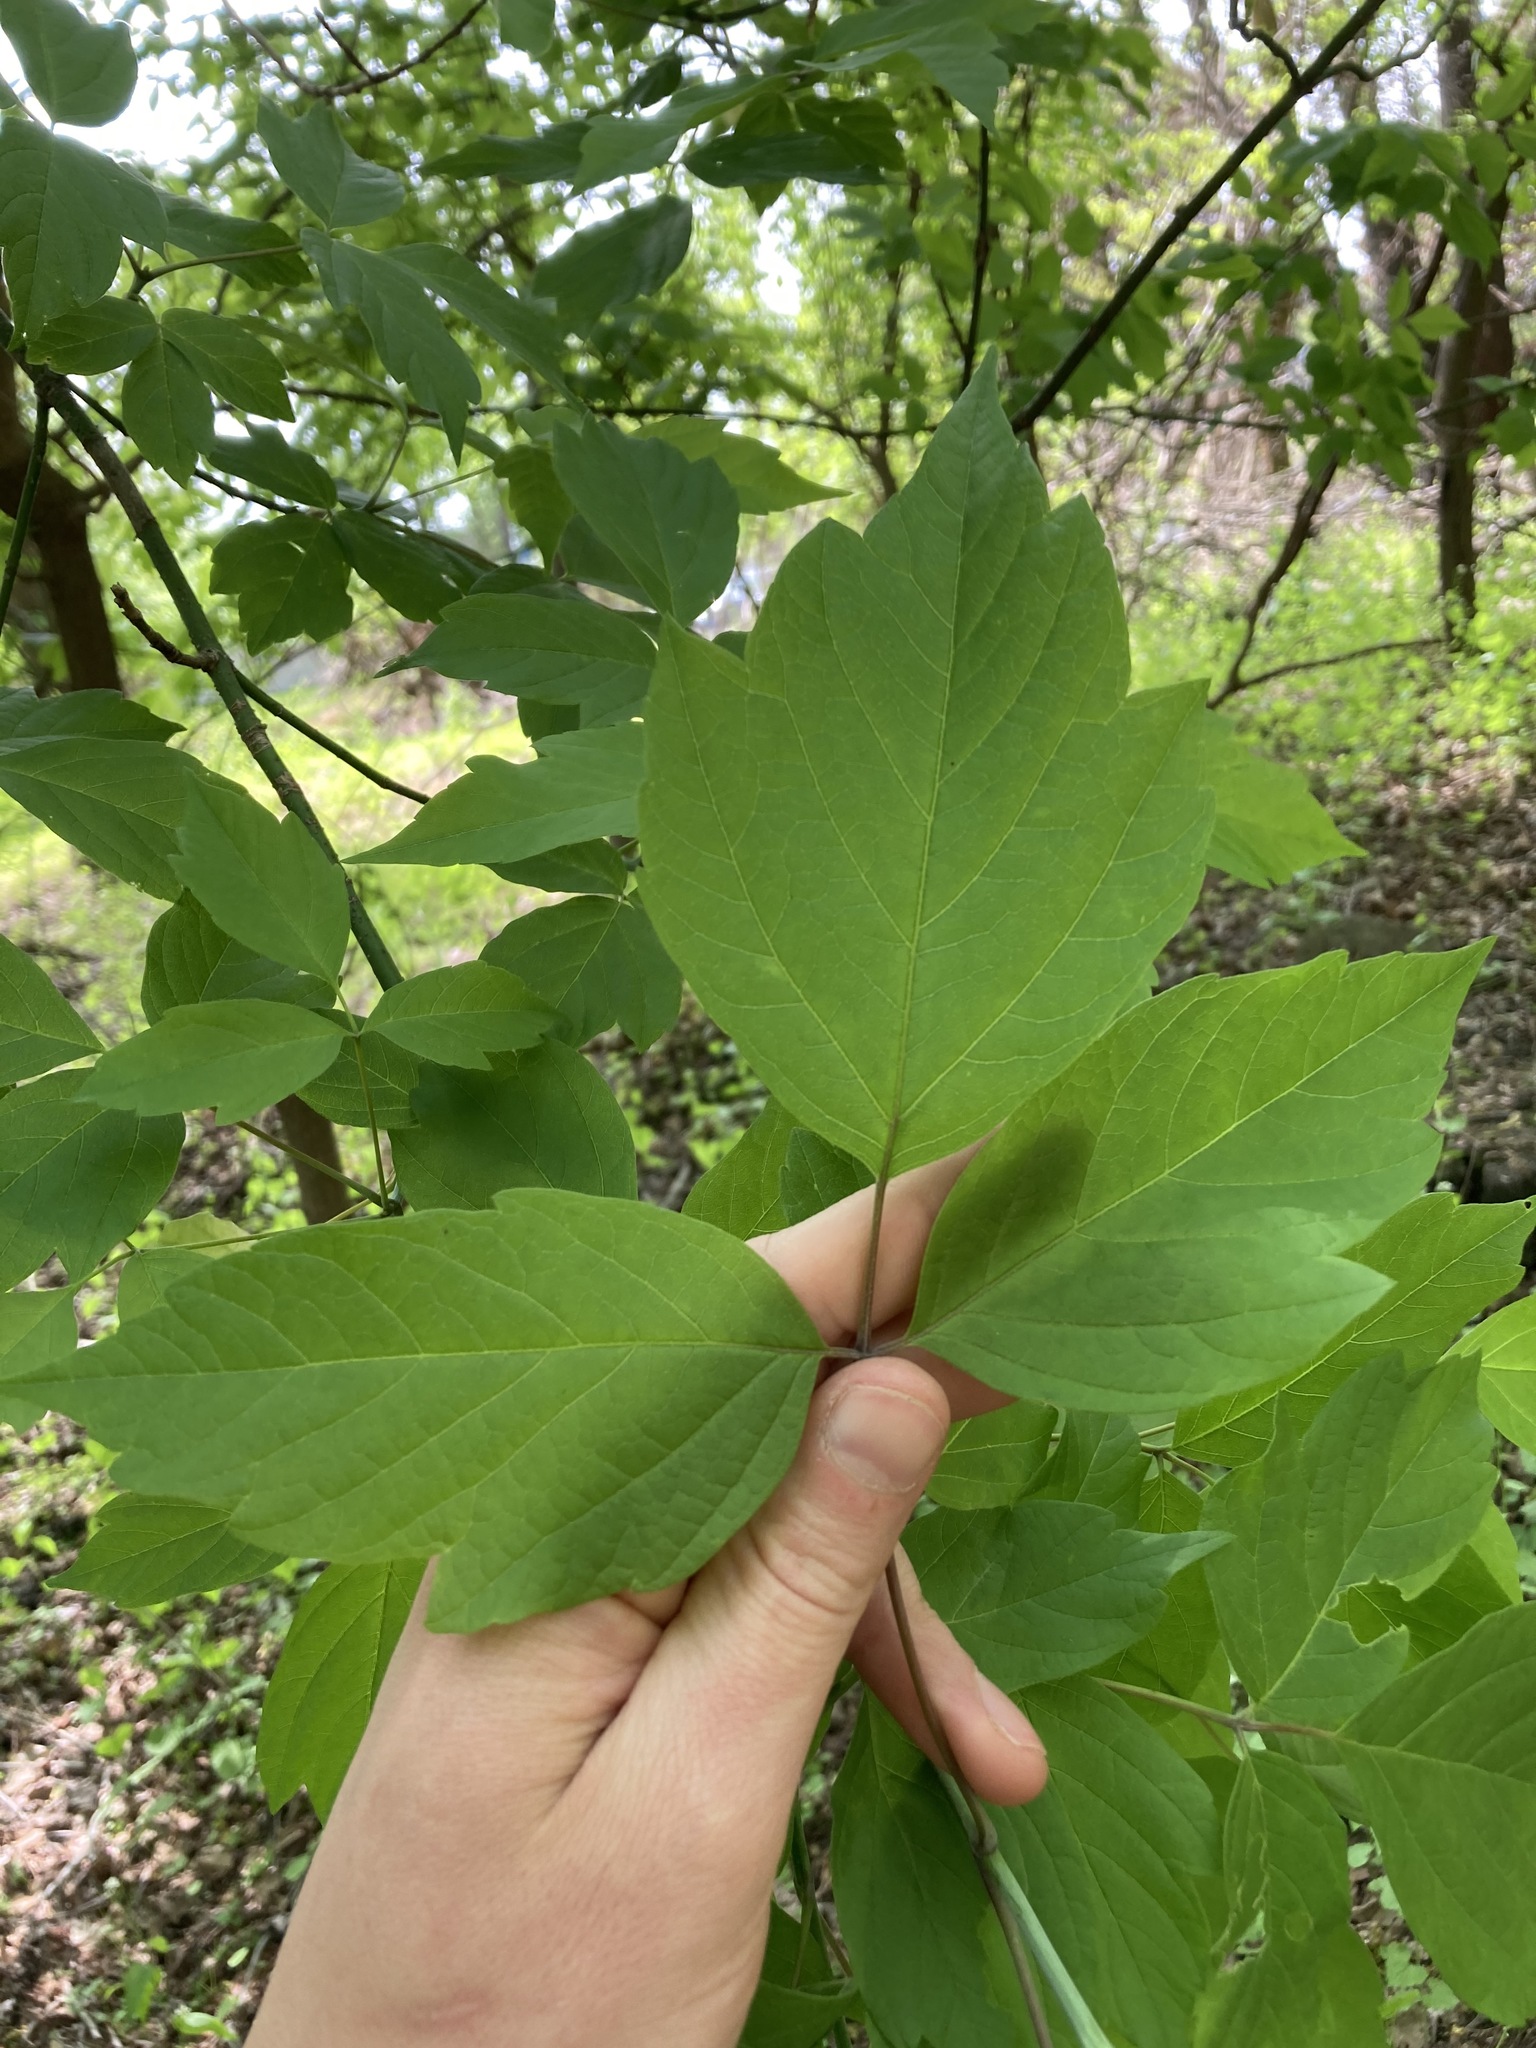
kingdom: Plantae
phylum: Tracheophyta
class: Magnoliopsida
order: Sapindales
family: Sapindaceae
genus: Acer
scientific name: Acer negundo
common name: Ashleaf maple
